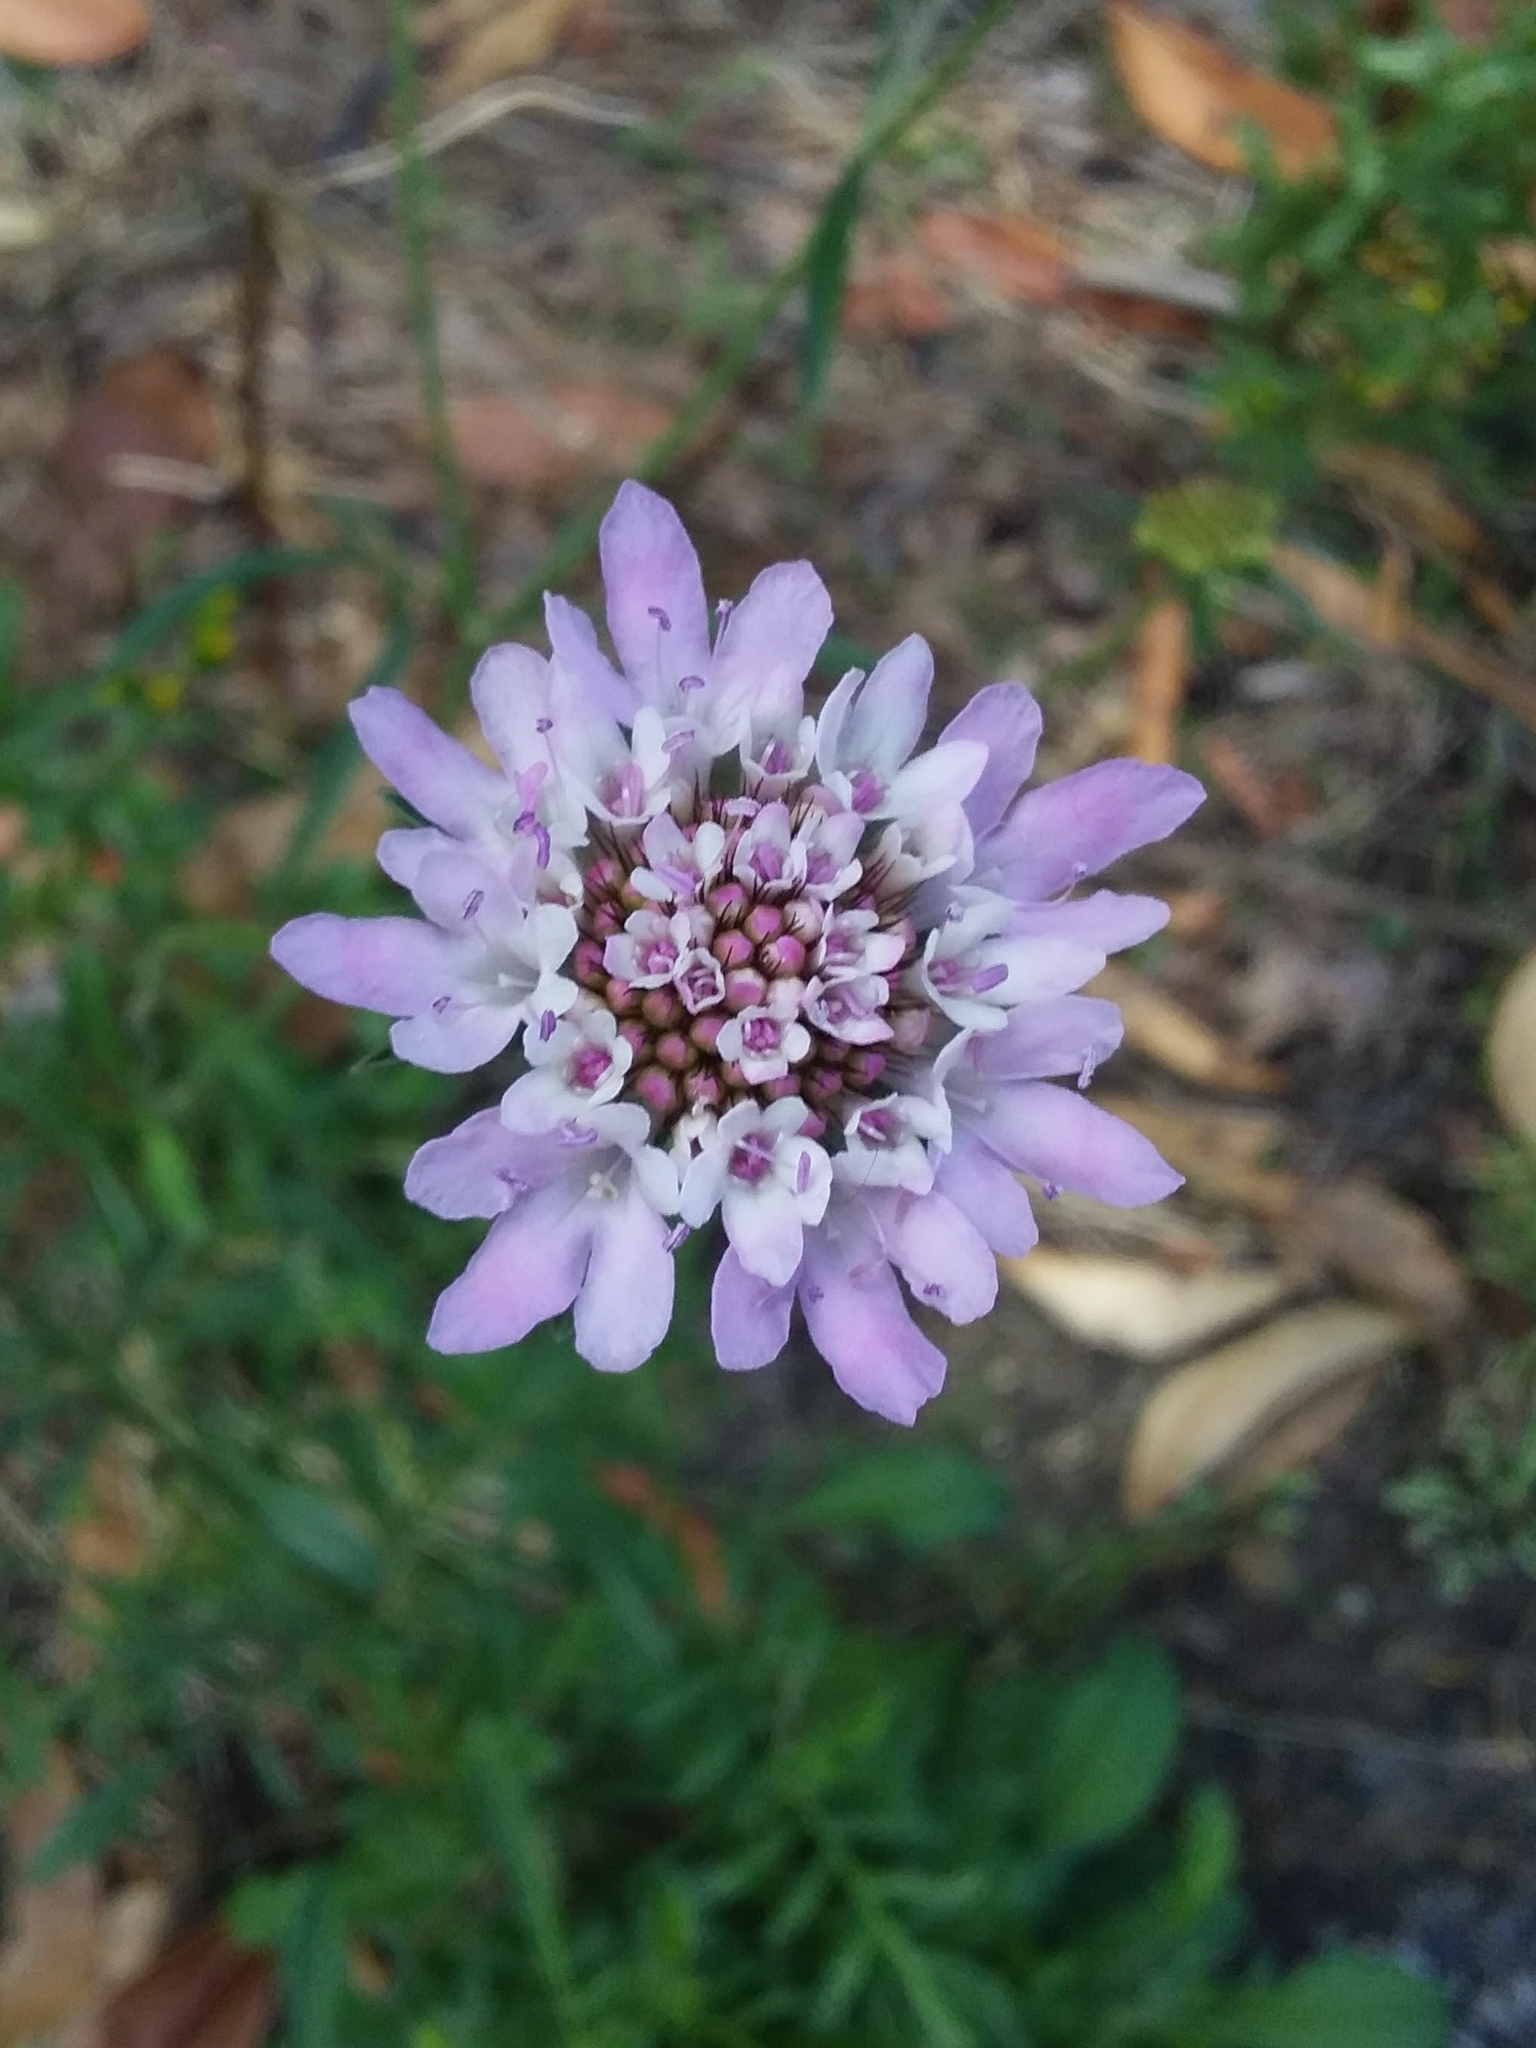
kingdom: Plantae
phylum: Tracheophyta
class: Magnoliopsida
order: Dipsacales
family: Caprifoliaceae
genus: Sixalix
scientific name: Sixalix atropurpurea
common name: Sweet scabious
